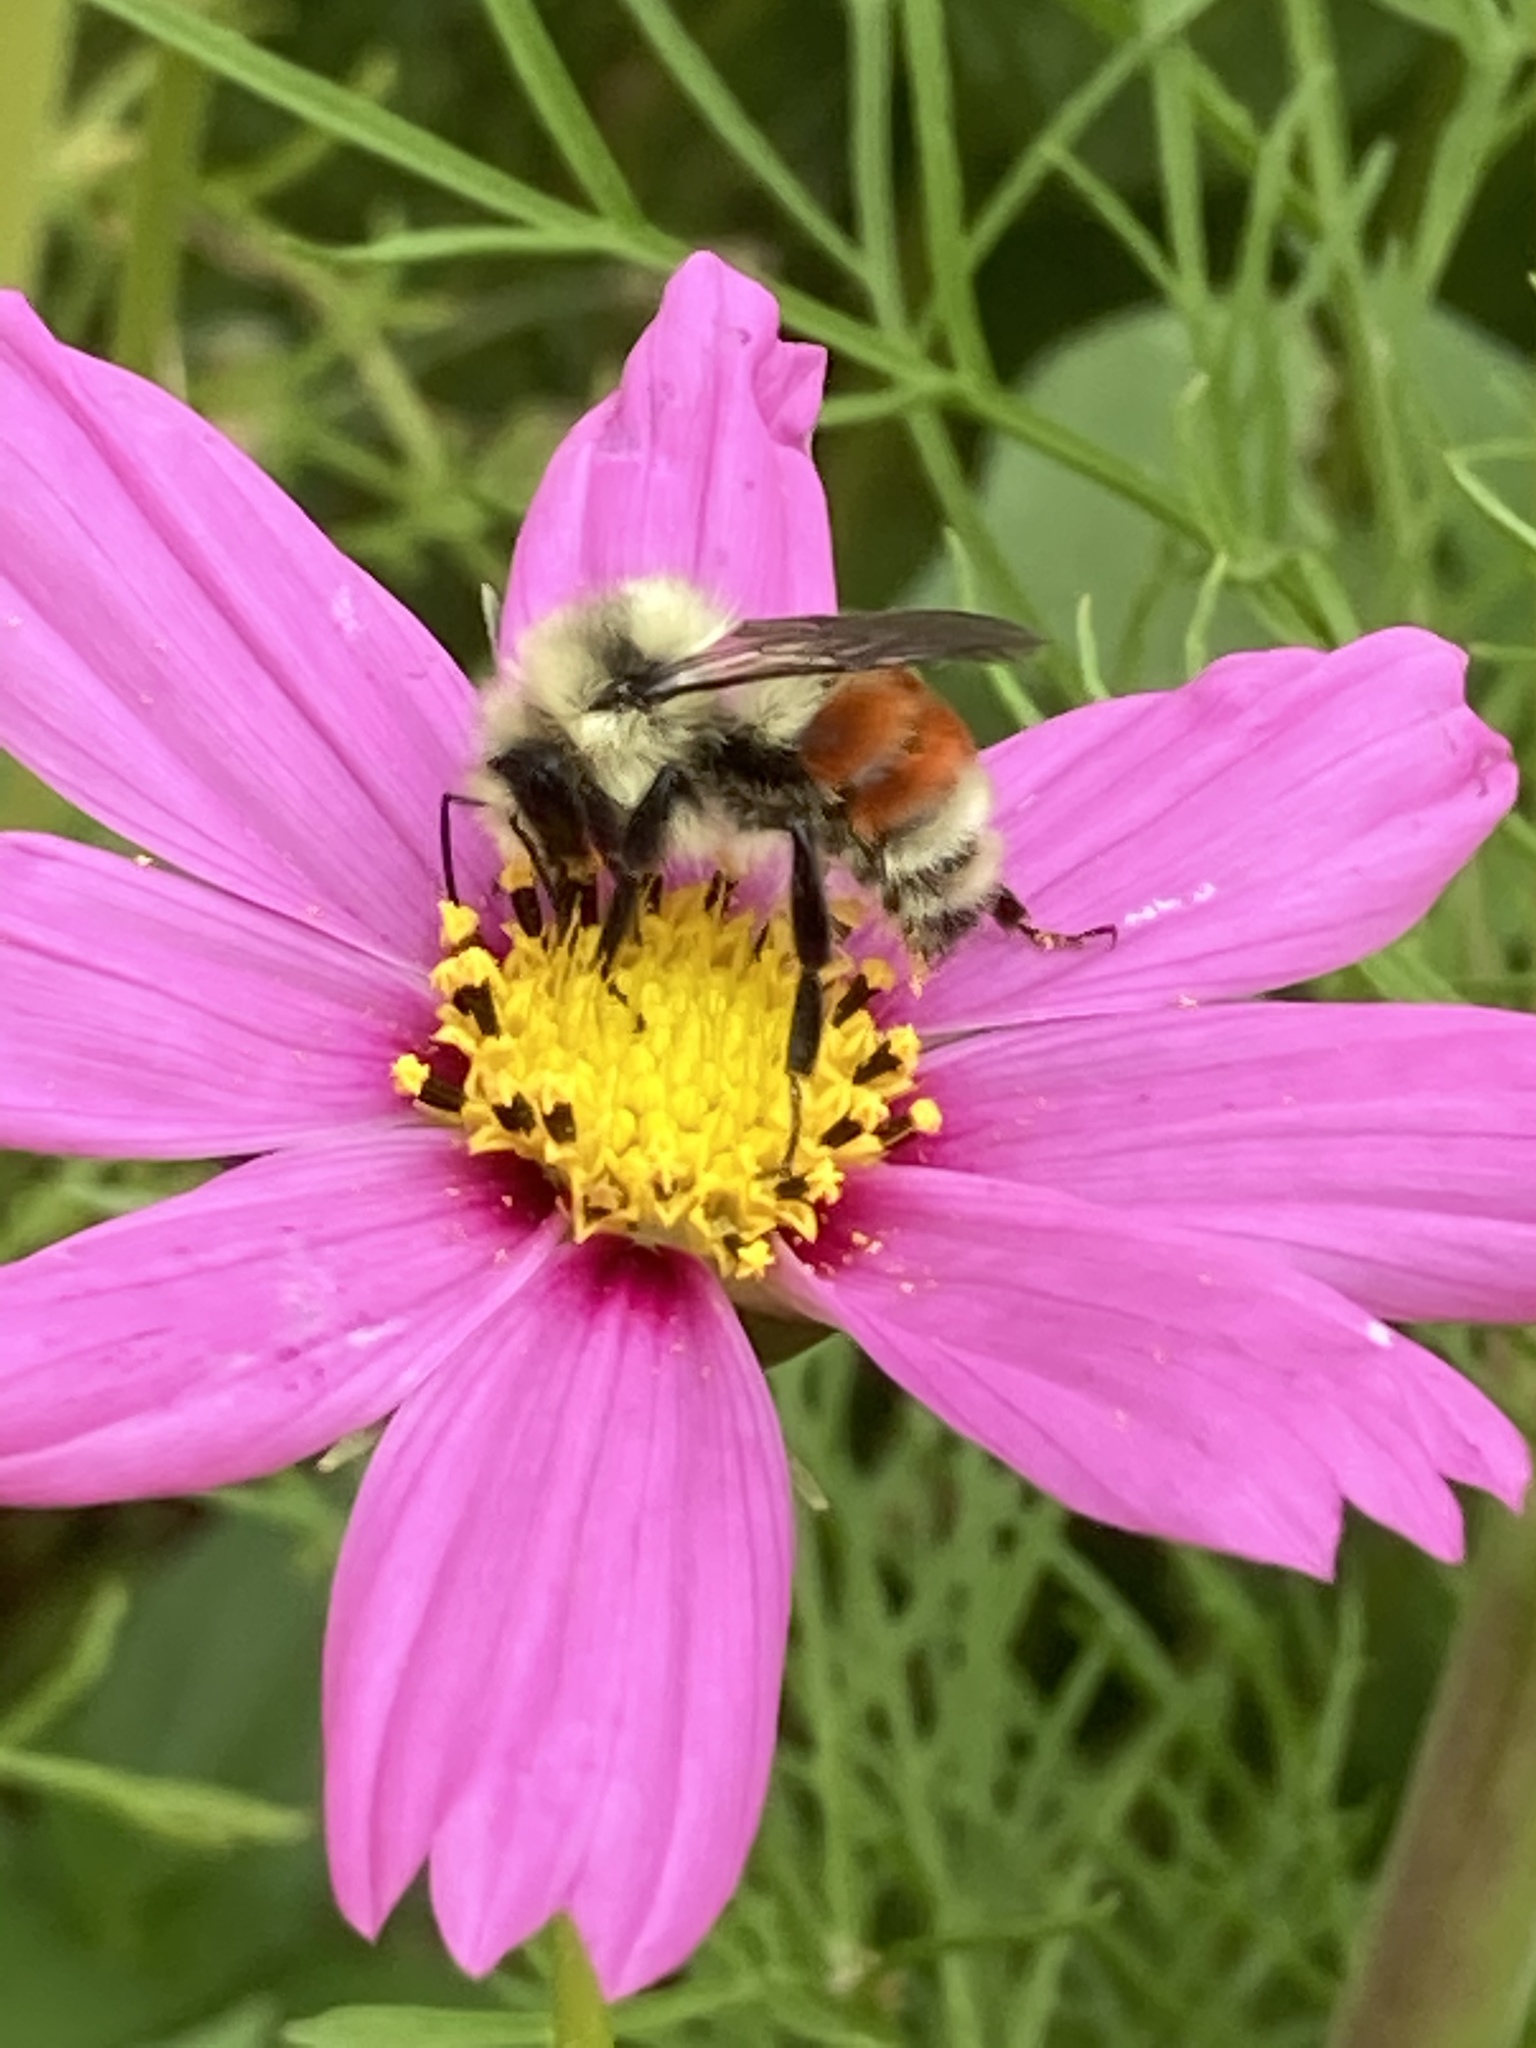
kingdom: Animalia
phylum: Arthropoda
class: Insecta
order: Hymenoptera
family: Apidae
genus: Bombus
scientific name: Bombus huntii
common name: Hunt bumble bee
